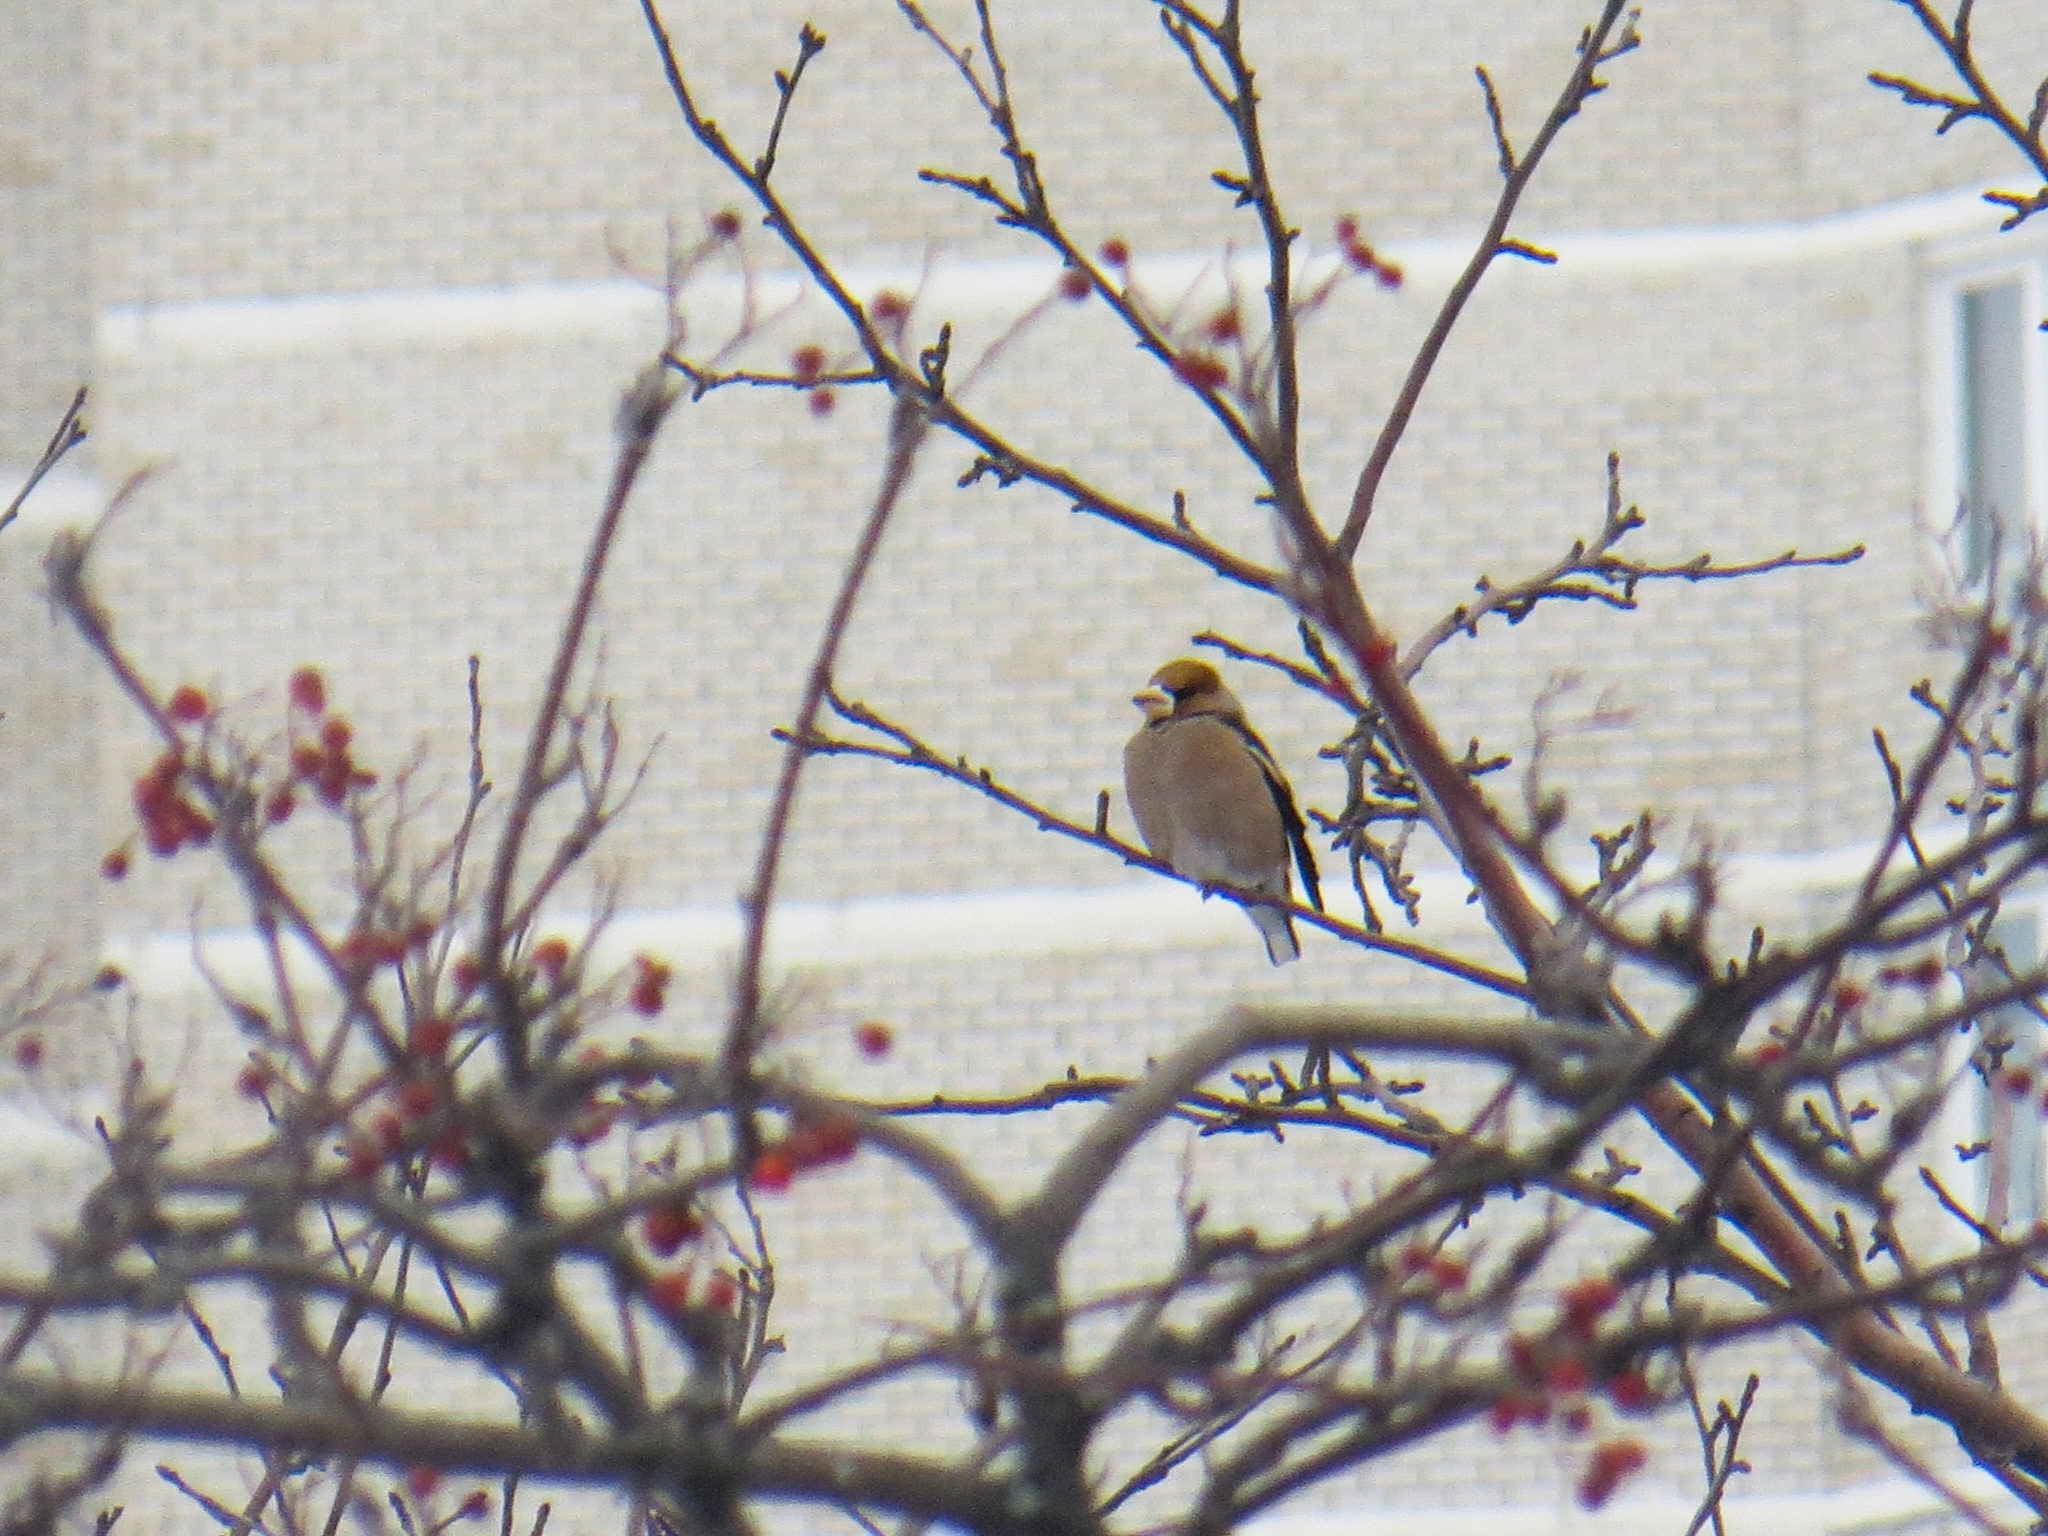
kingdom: Animalia
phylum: Chordata
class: Aves
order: Passeriformes
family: Fringillidae
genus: Coccothraustes
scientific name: Coccothraustes coccothraustes
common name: Hawfinch
